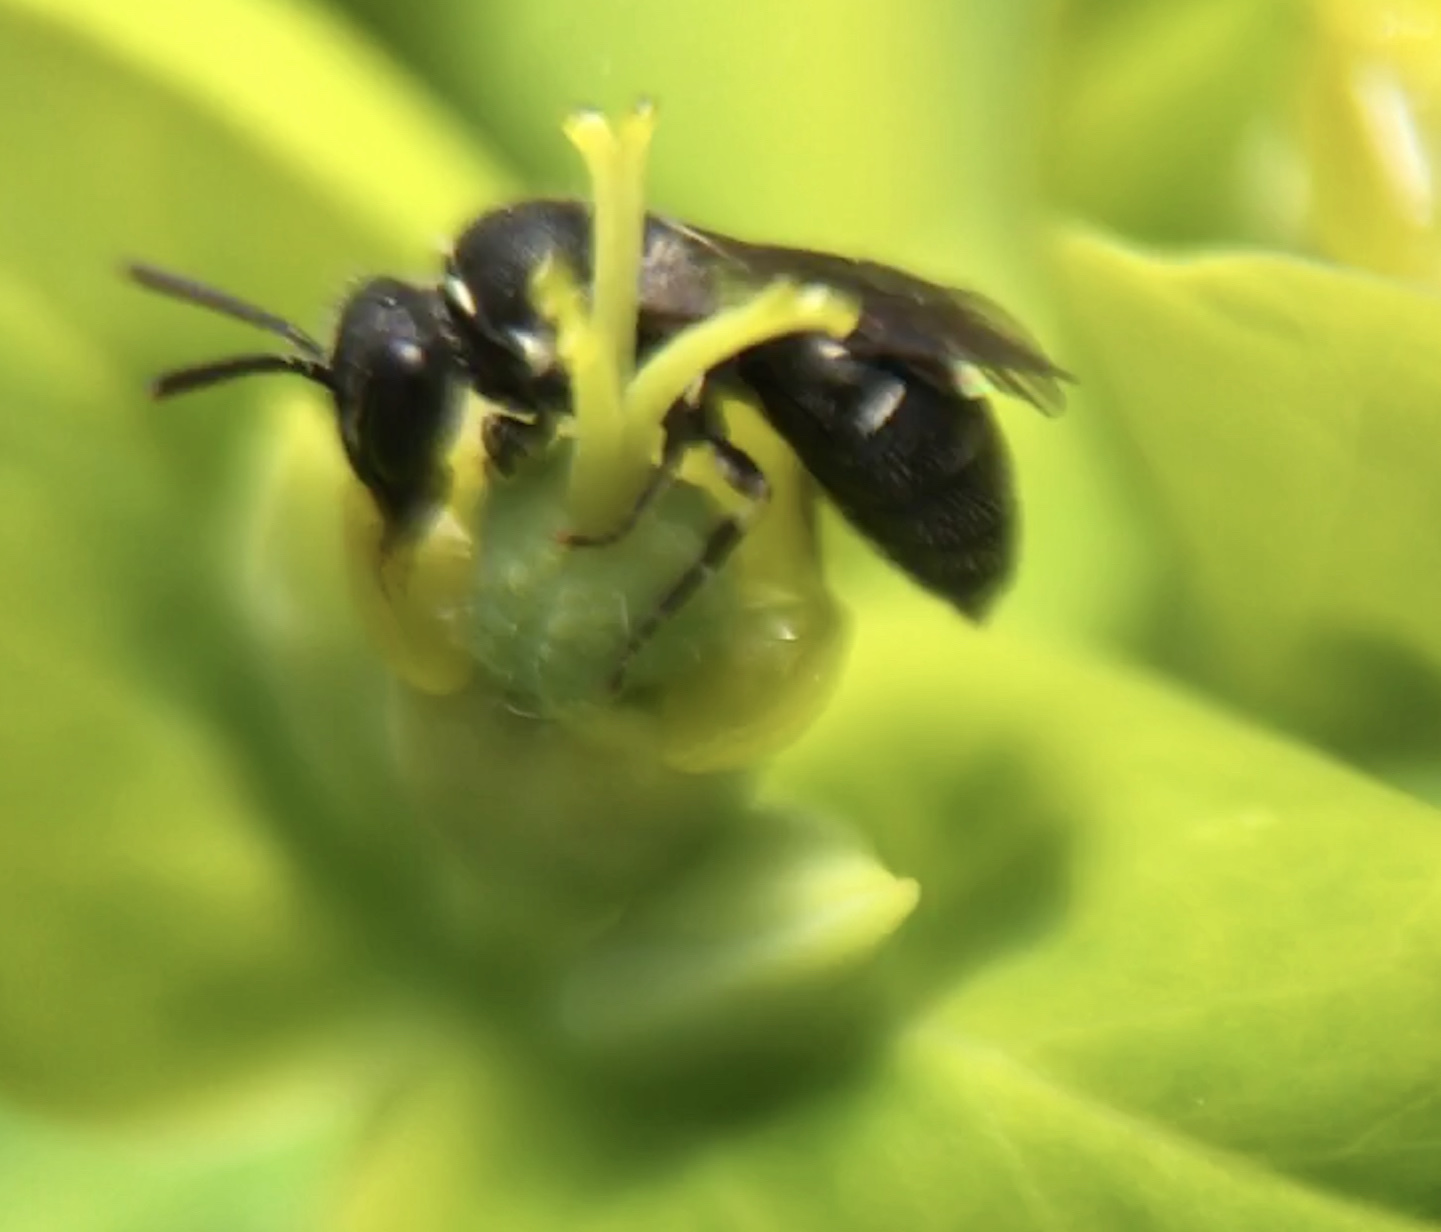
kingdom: Animalia
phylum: Arthropoda
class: Insecta
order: Hymenoptera
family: Colletidae
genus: Hylaeus
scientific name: Hylaeus
